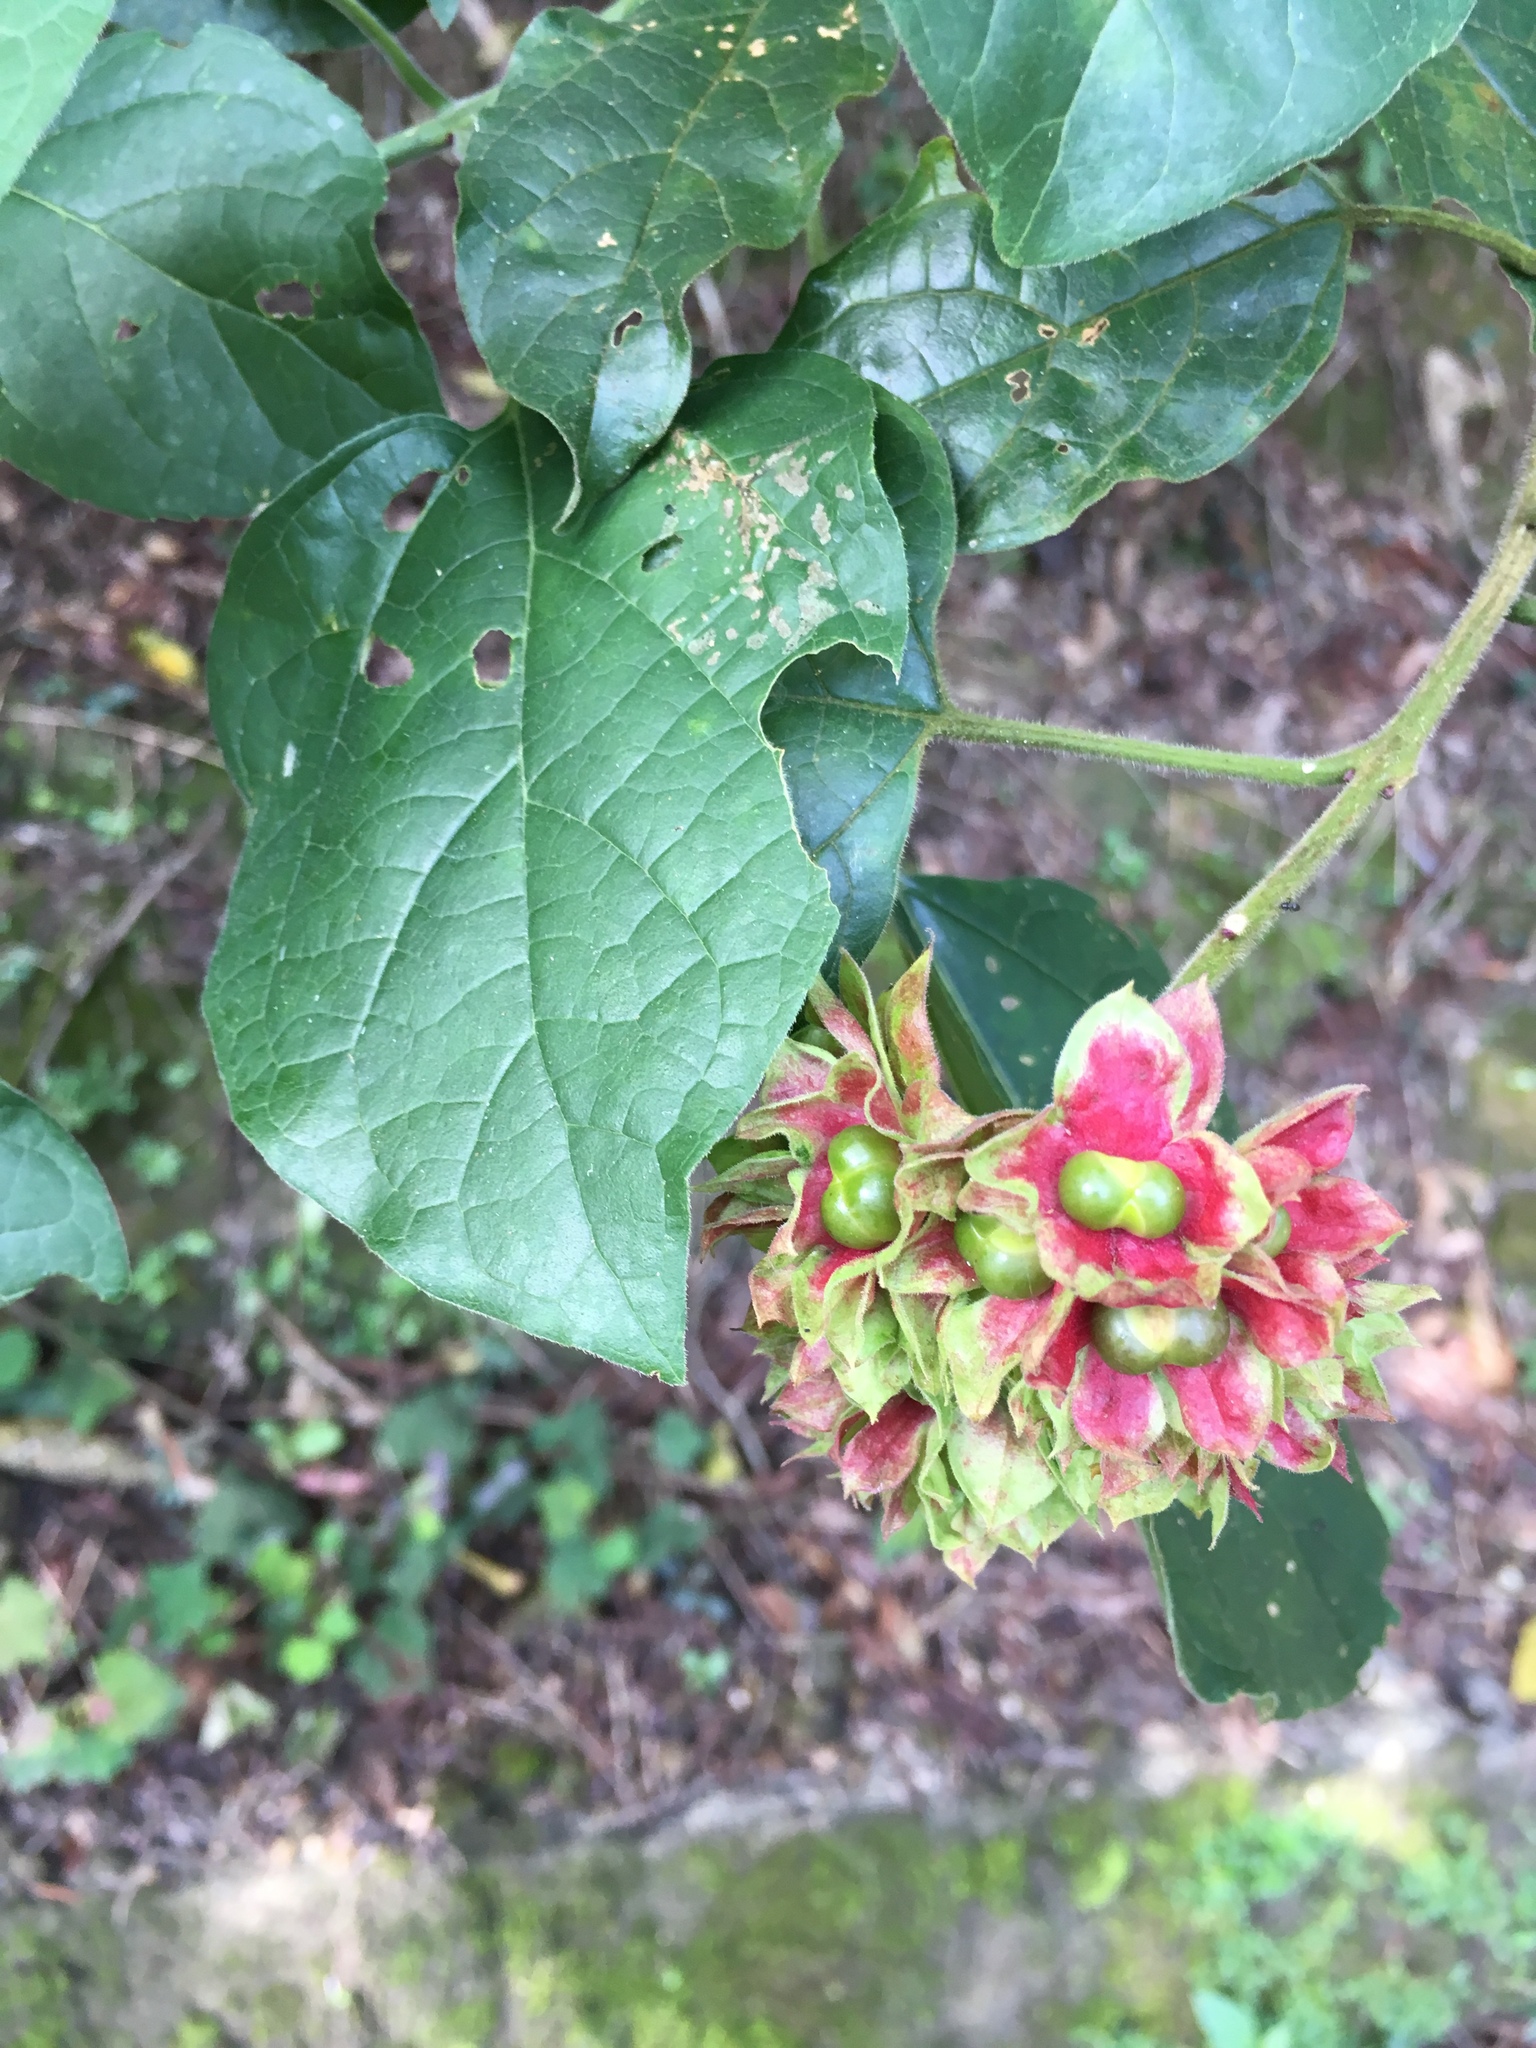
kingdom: Plantae
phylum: Tracheophyta
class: Magnoliopsida
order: Lamiales
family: Lamiaceae
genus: Clerodendrum
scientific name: Clerodendrum canescens
